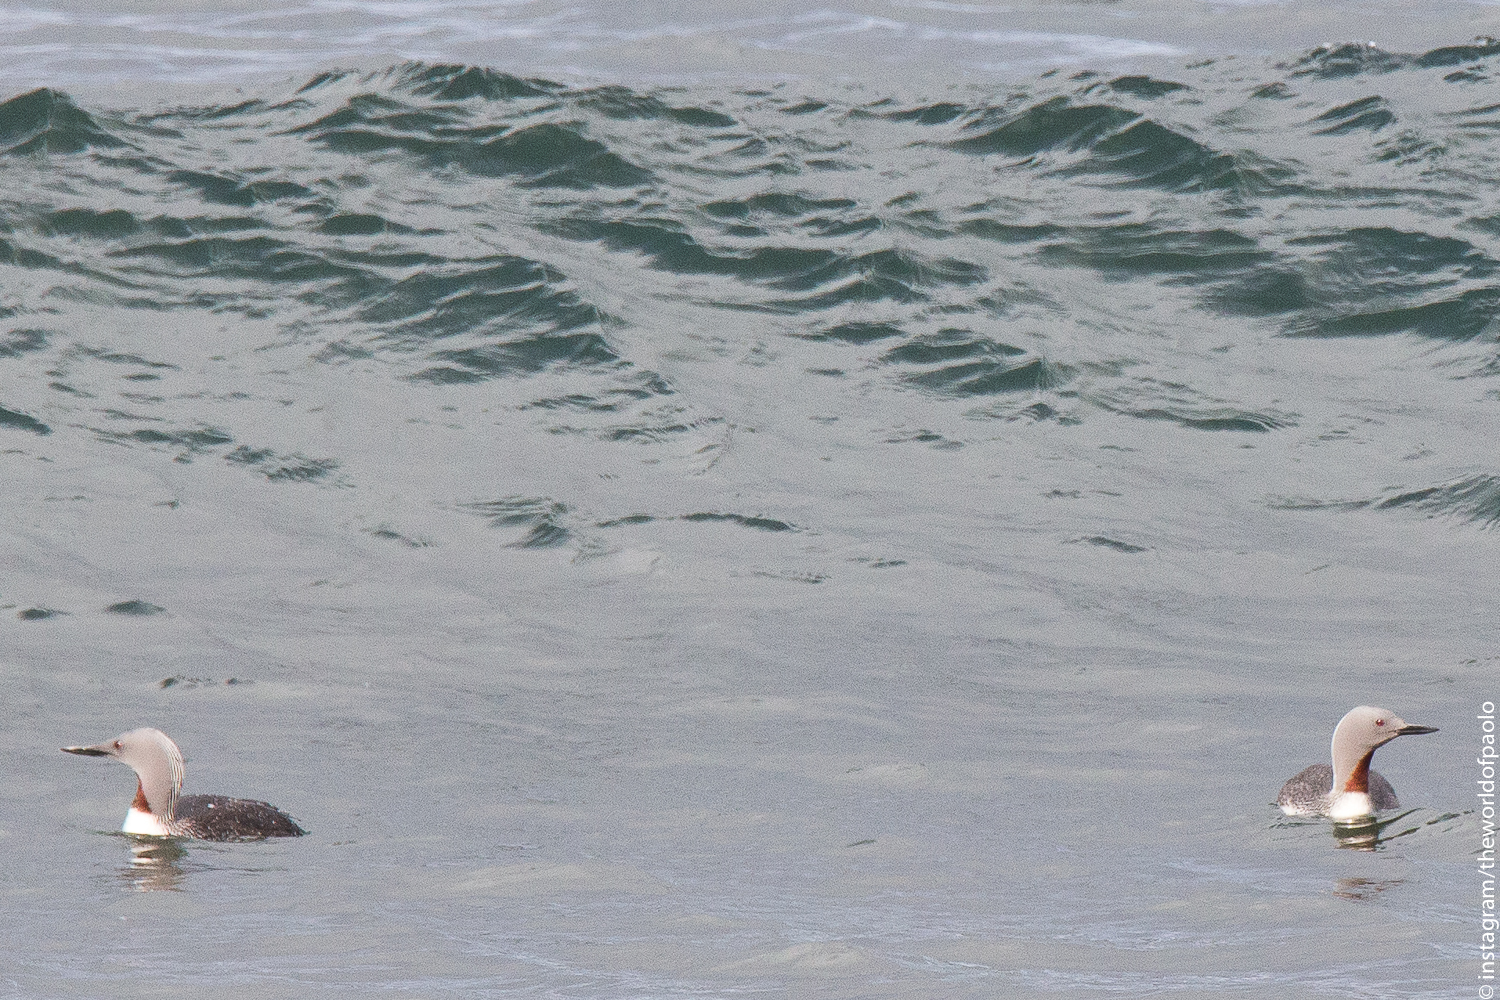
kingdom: Animalia
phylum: Chordata
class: Aves
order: Gaviiformes
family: Gaviidae
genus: Gavia
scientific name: Gavia stellata
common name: Red-throated loon
